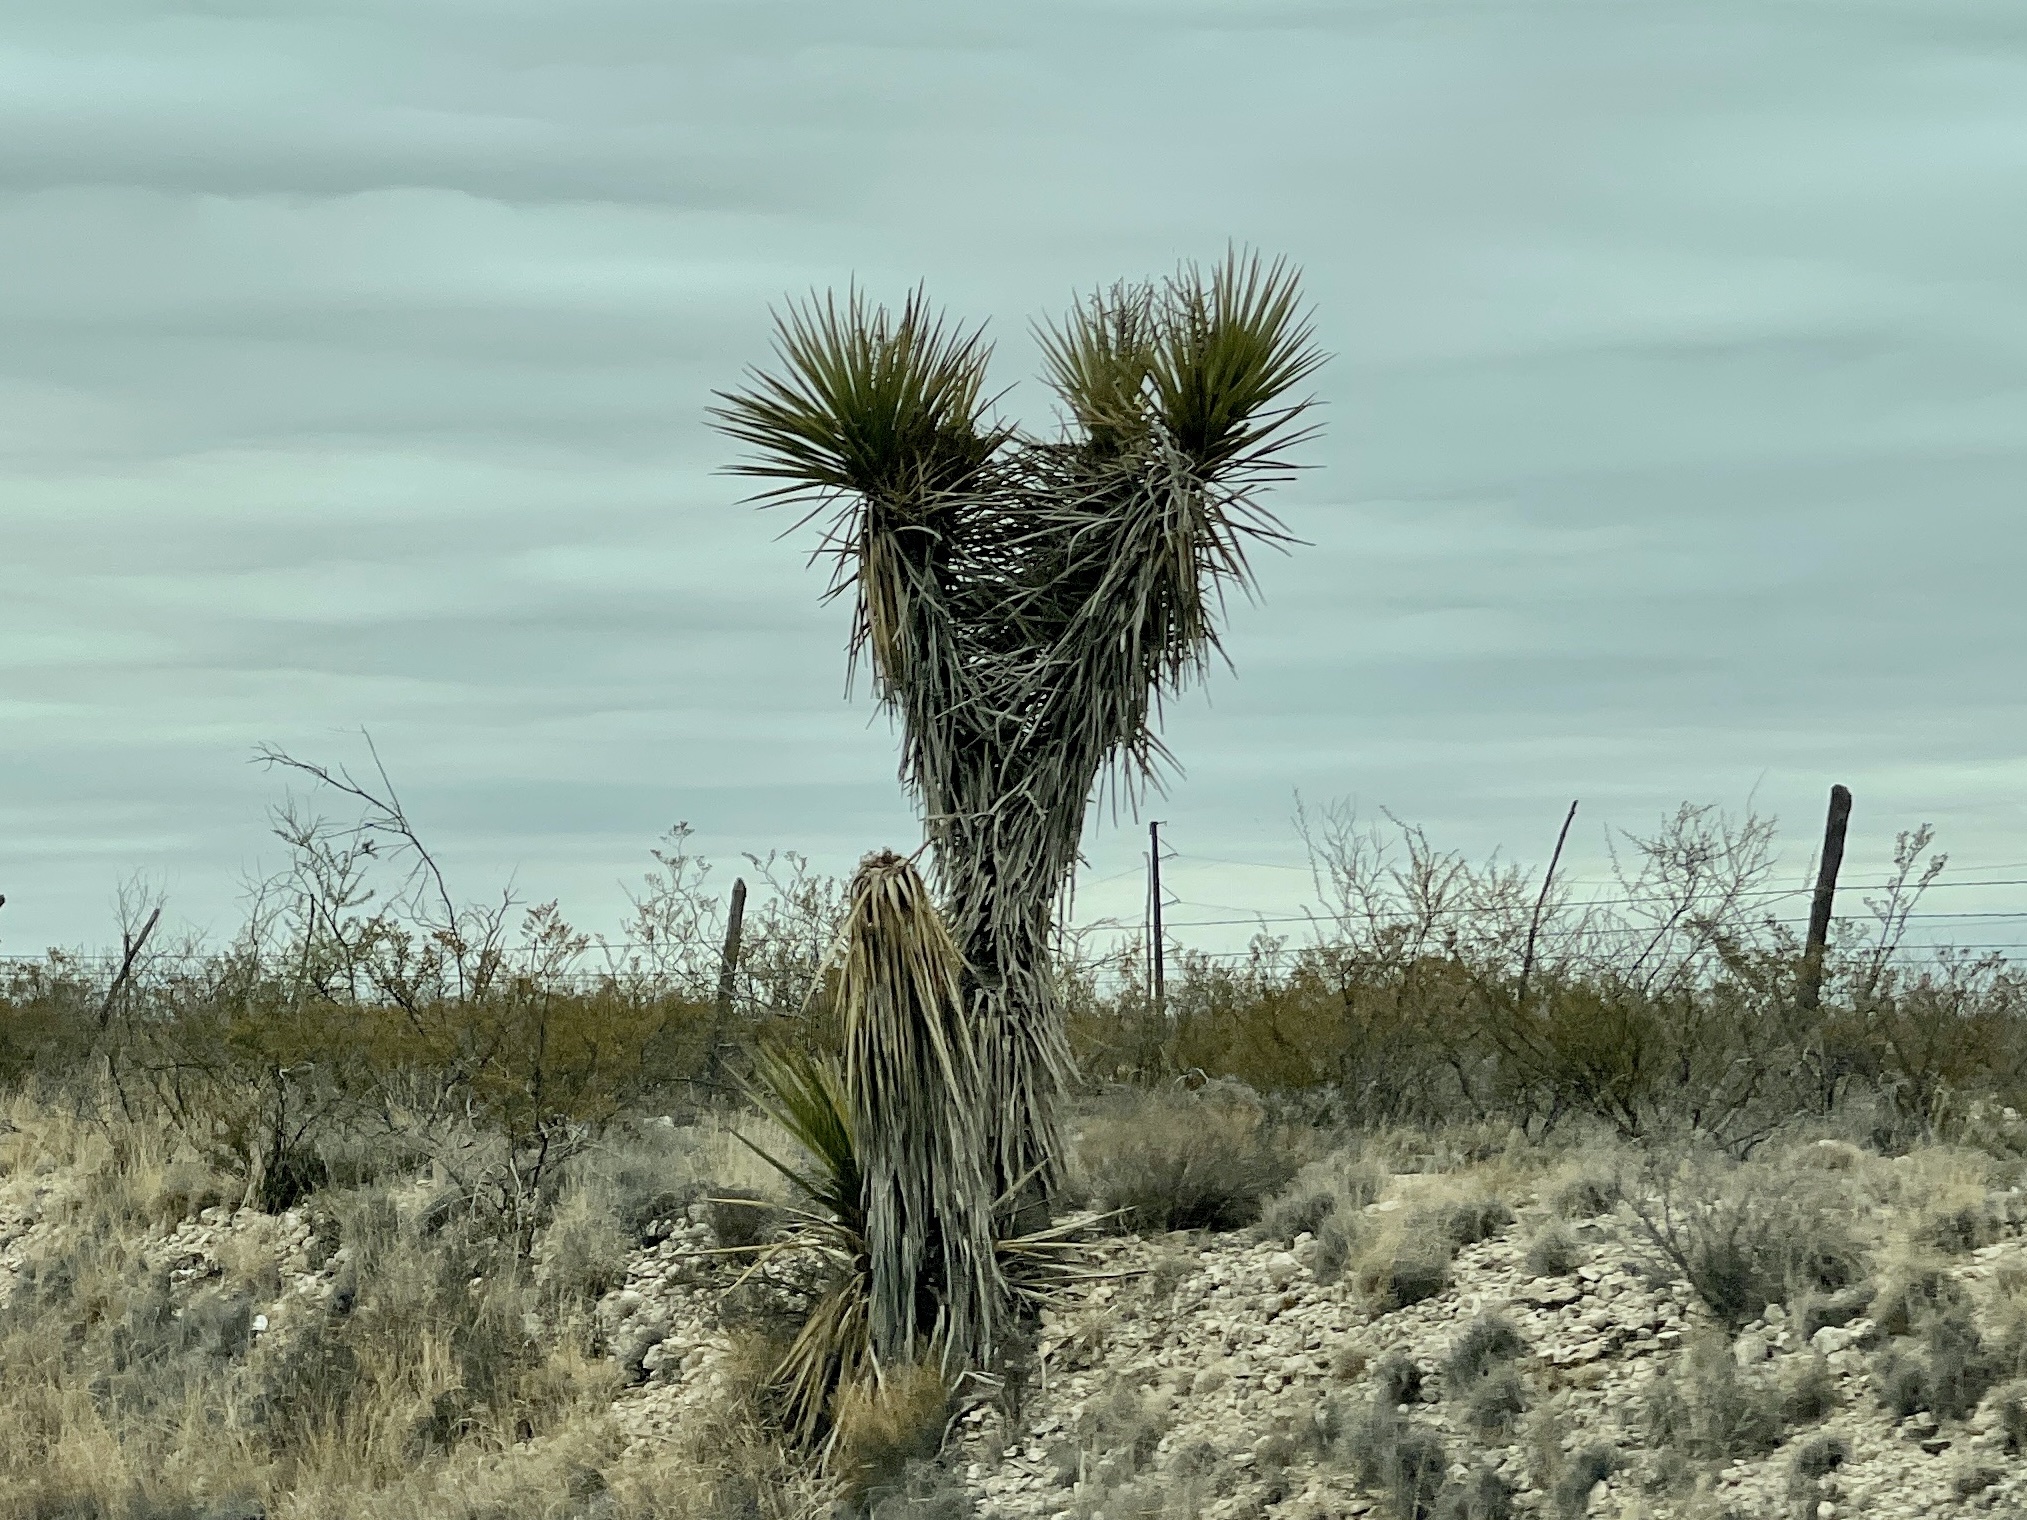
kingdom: Plantae
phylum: Tracheophyta
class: Liliopsida
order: Asparagales
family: Asparagaceae
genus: Yucca
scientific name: Yucca treculiana
